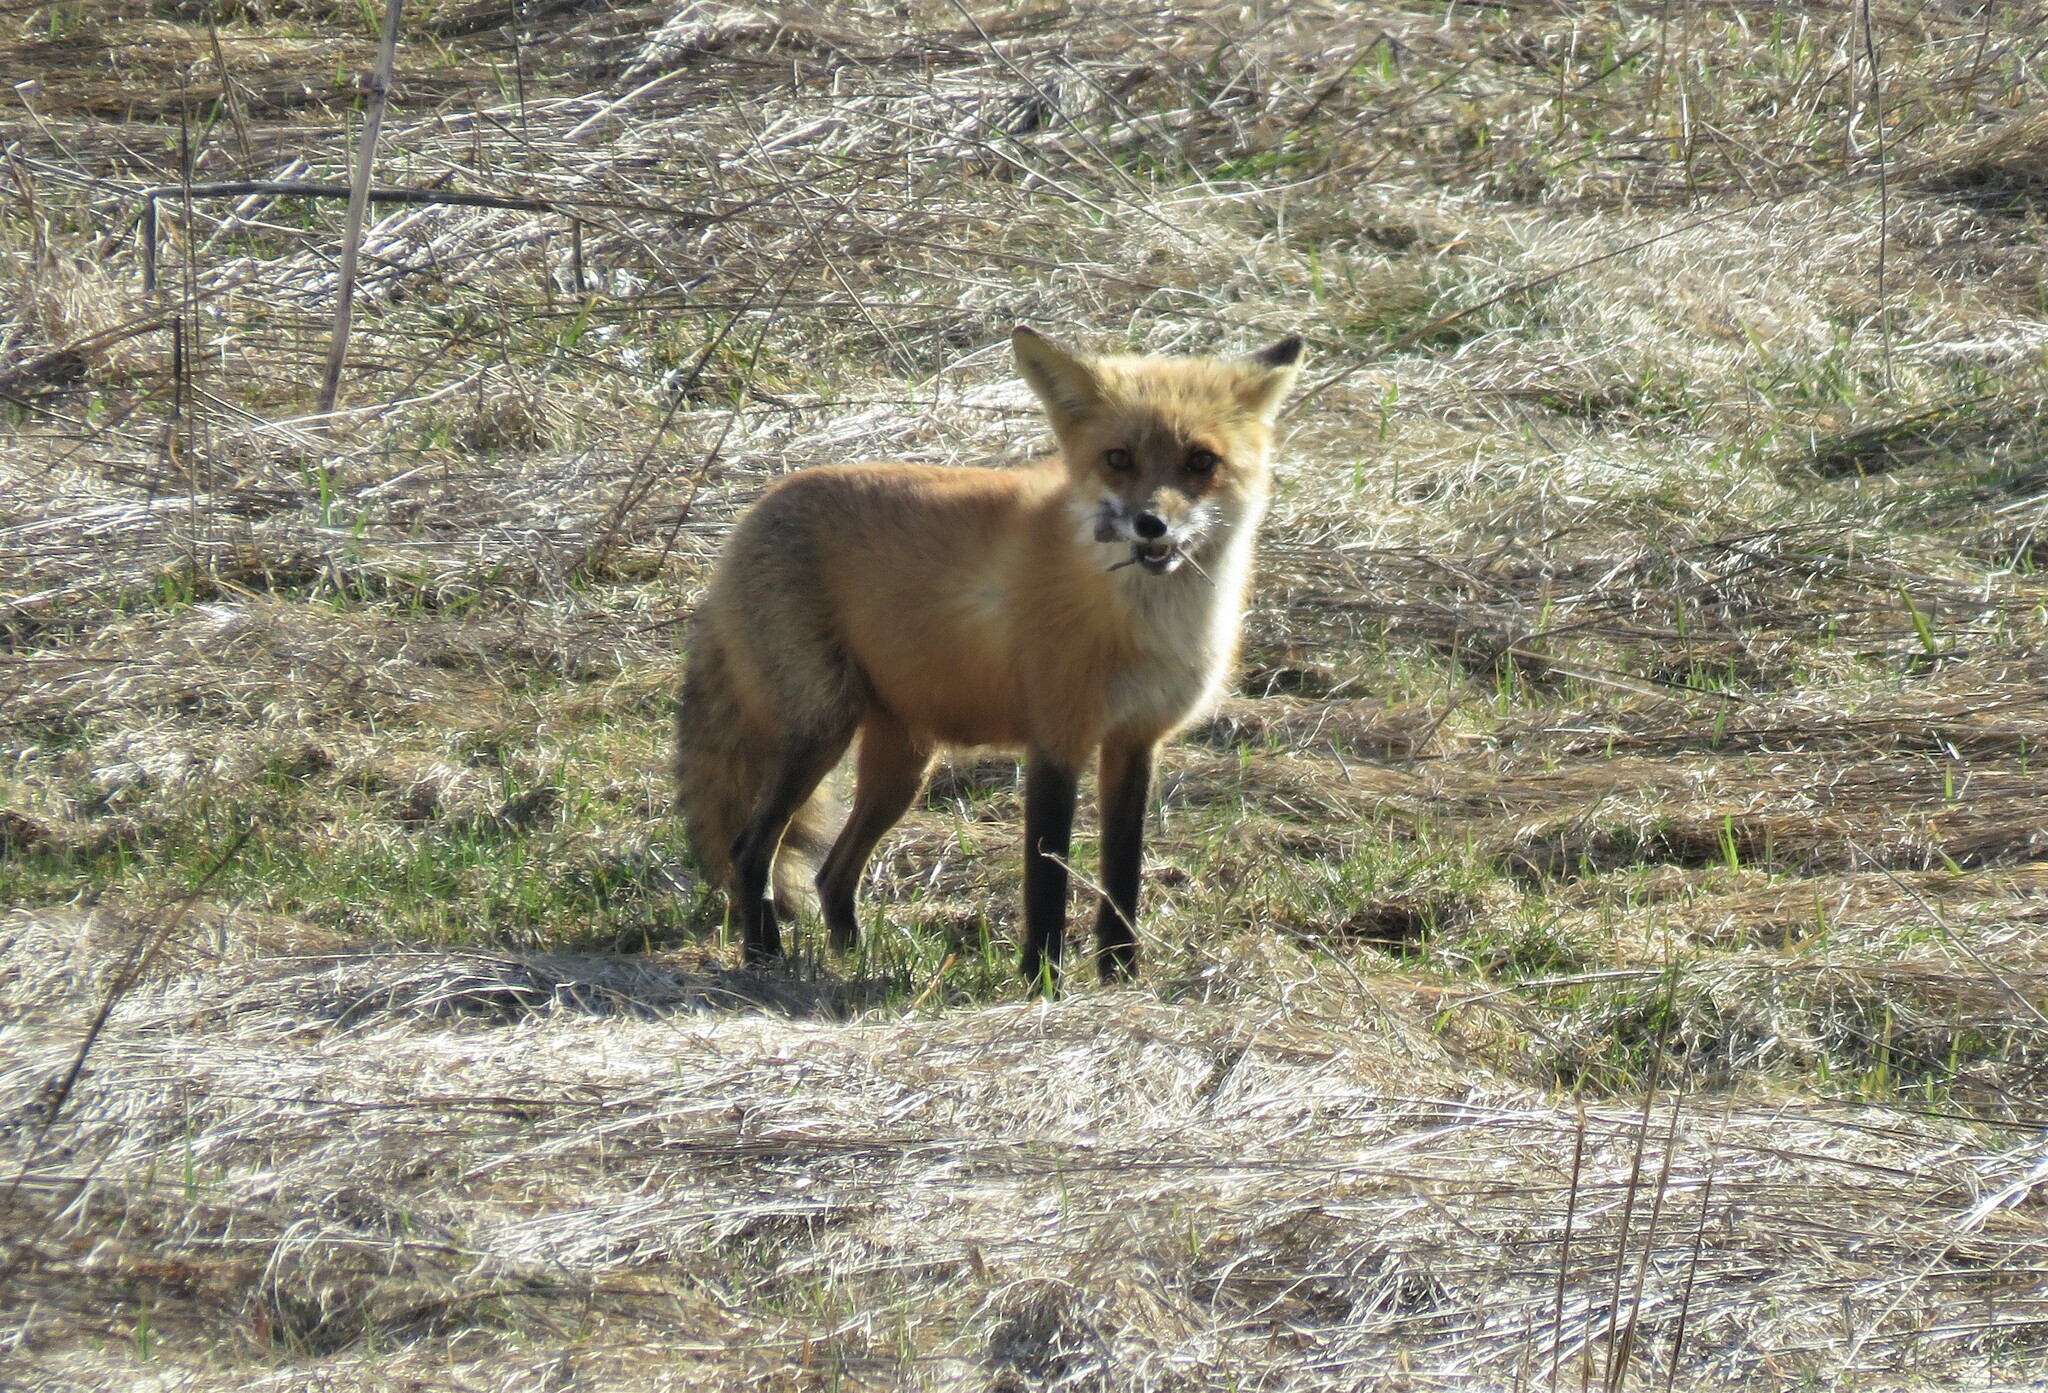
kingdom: Animalia
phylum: Chordata
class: Mammalia
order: Rodentia
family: Cricetidae
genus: Microtus
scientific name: Microtus pennsylvanicus
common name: Meadow vole
